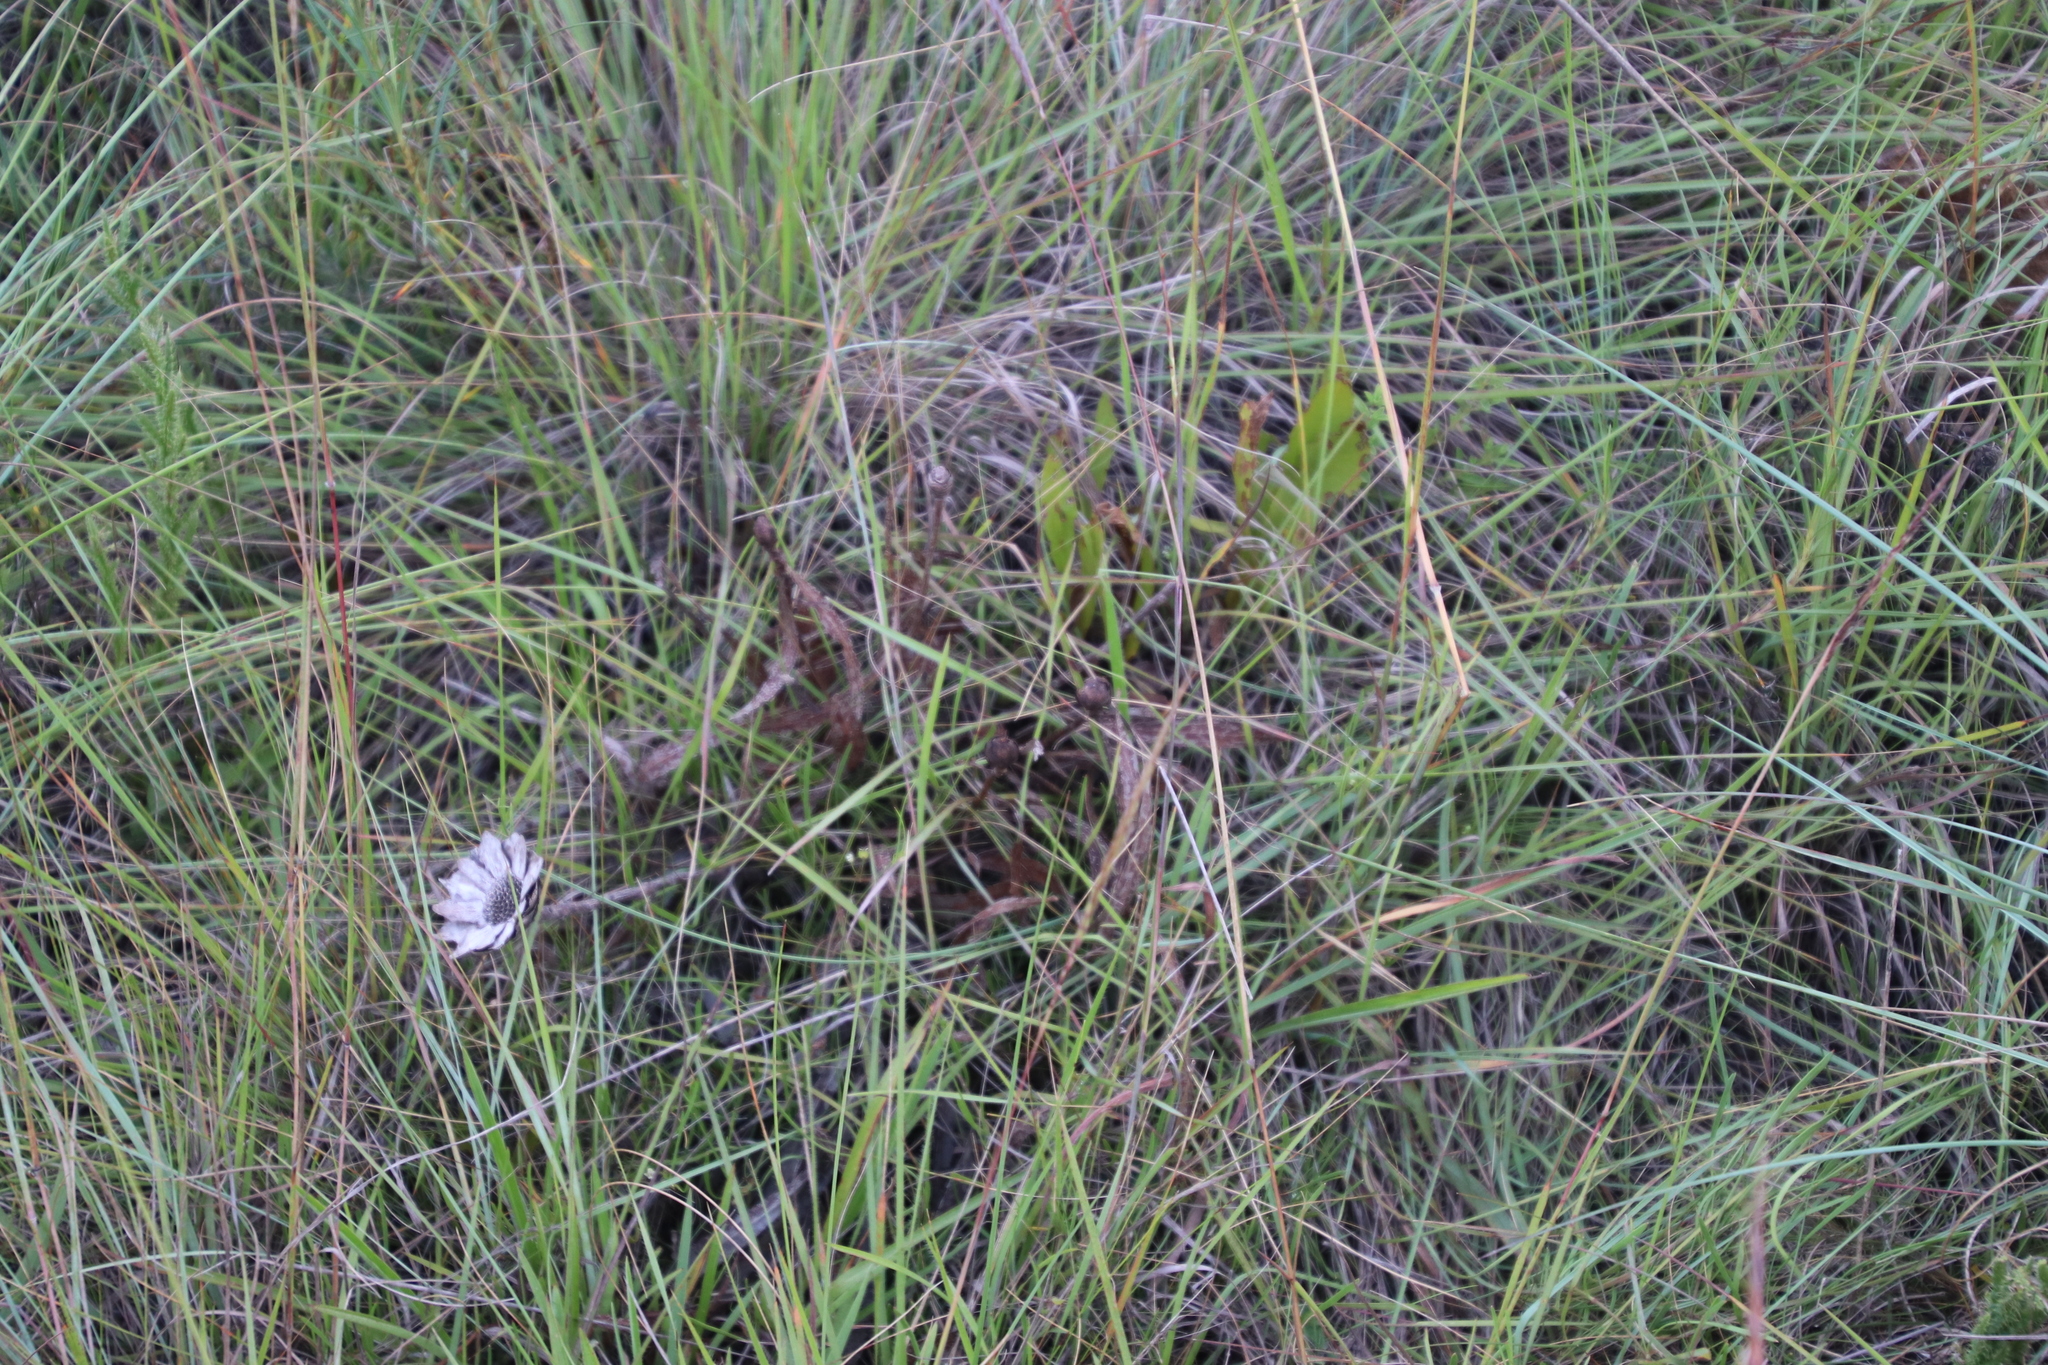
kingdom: Plantae
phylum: Tracheophyta
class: Magnoliopsida
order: Proteales
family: Proteaceae
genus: Protea
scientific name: Protea simplex
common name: Dwarf grassveld sugarbush
